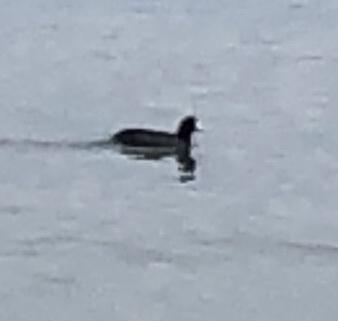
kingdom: Animalia
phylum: Chordata
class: Aves
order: Gruiformes
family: Rallidae
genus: Fulica
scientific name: Fulica americana
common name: American coot
